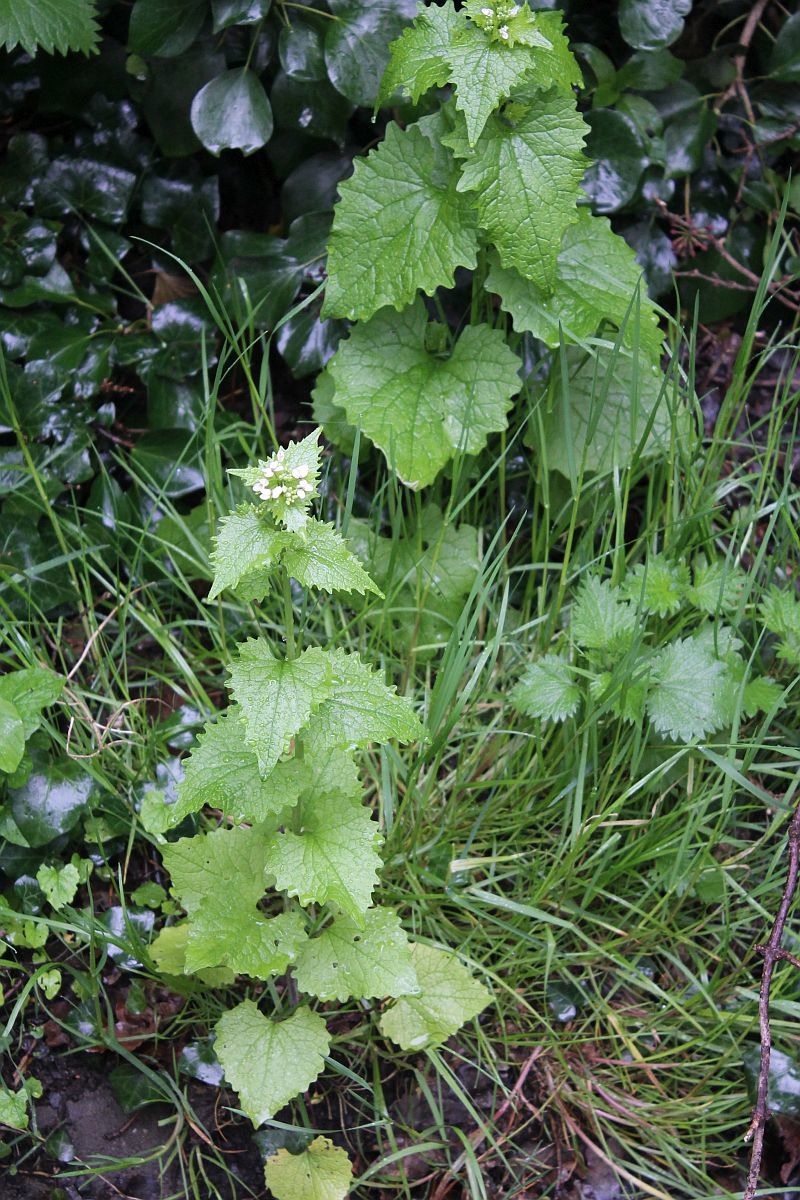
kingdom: Plantae
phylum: Tracheophyta
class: Magnoliopsida
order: Brassicales
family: Brassicaceae
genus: Alliaria
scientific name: Alliaria petiolata
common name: Garlic mustard
